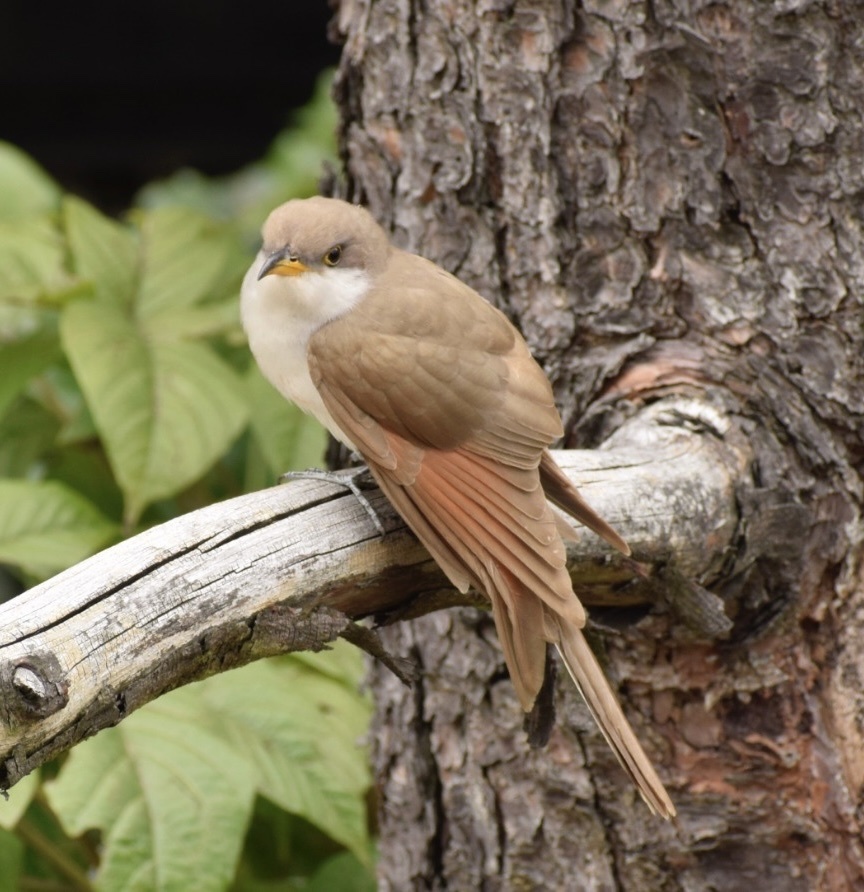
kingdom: Animalia
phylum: Chordata
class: Aves
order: Cuculiformes
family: Cuculidae
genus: Coccyzus
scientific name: Coccyzus americanus
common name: Yellow-billed cuckoo
